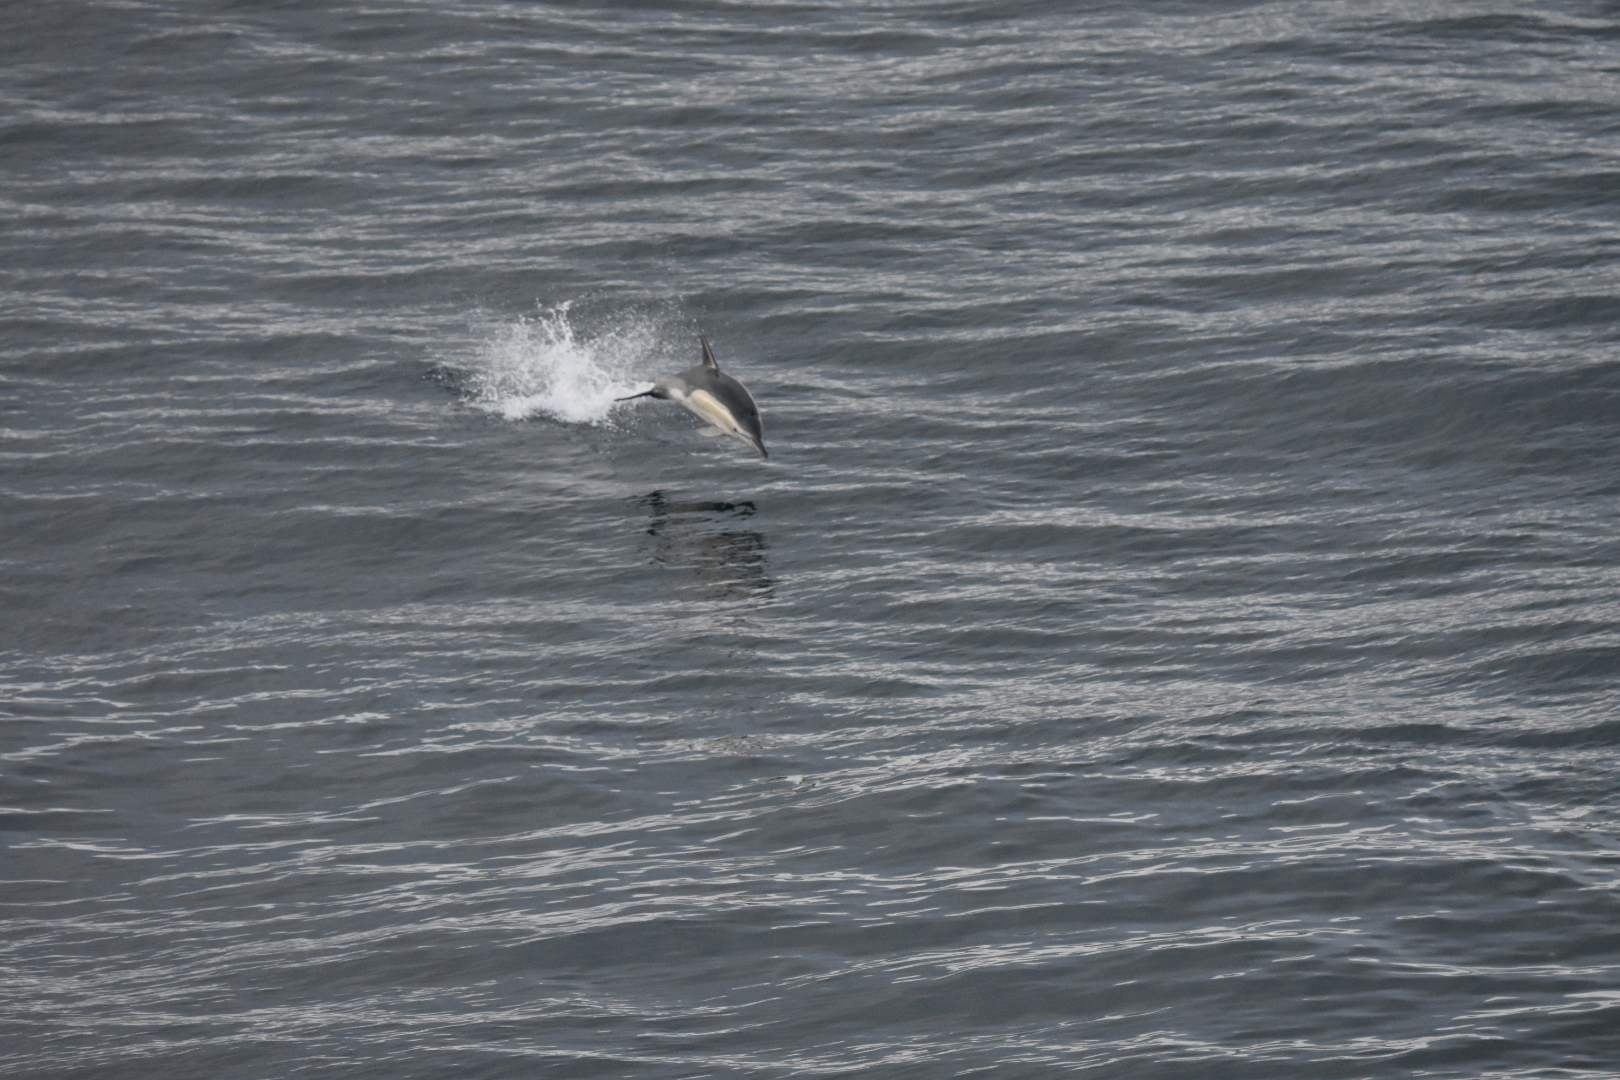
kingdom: Animalia
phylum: Chordata
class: Mammalia
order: Cetacea
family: Delphinidae
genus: Delphinus
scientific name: Delphinus delphis
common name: Common dolphin
